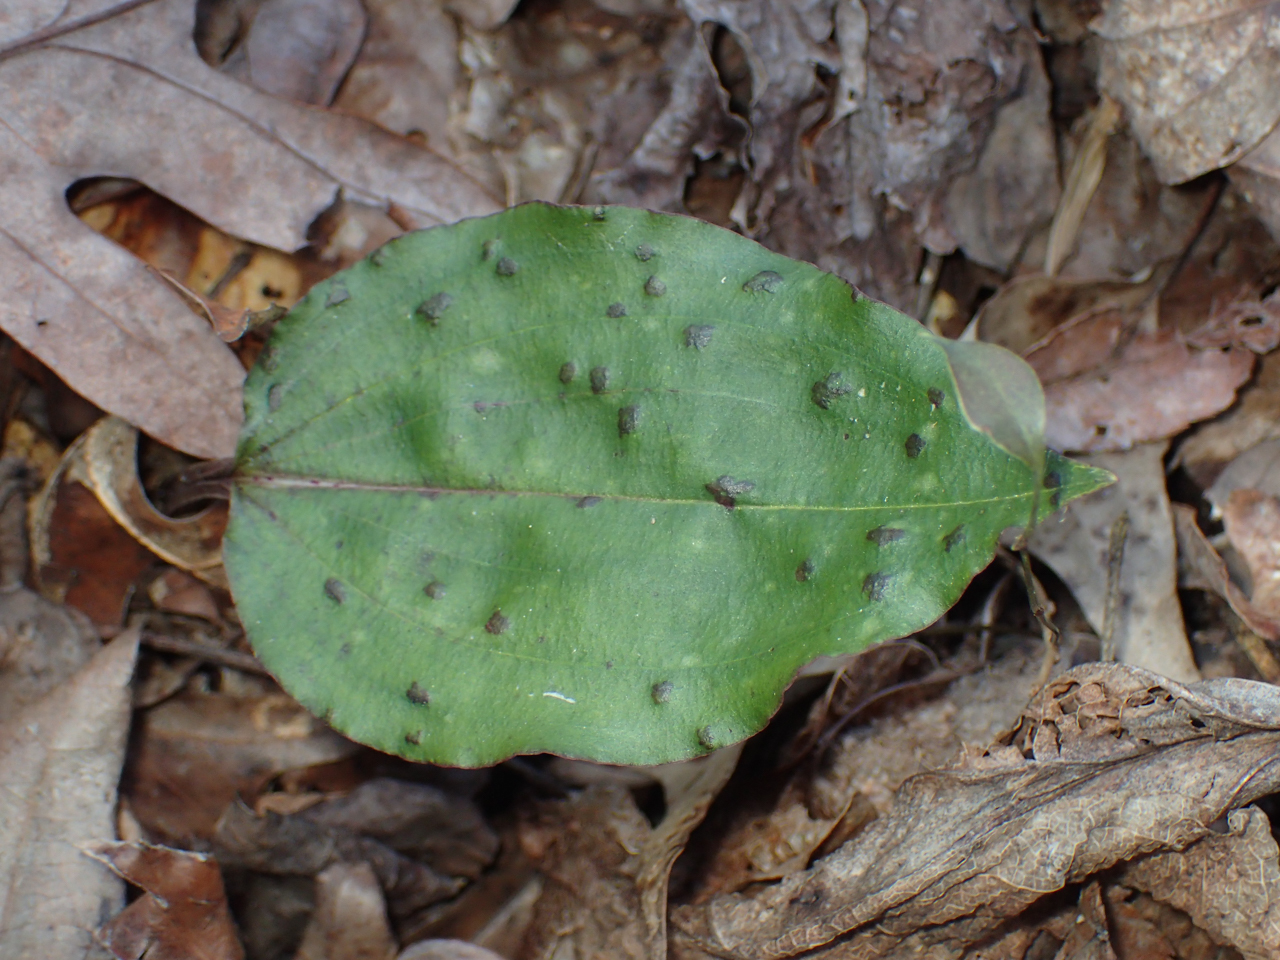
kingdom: Plantae
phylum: Tracheophyta
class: Liliopsida
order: Asparagales
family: Orchidaceae
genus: Tipularia
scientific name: Tipularia discolor
